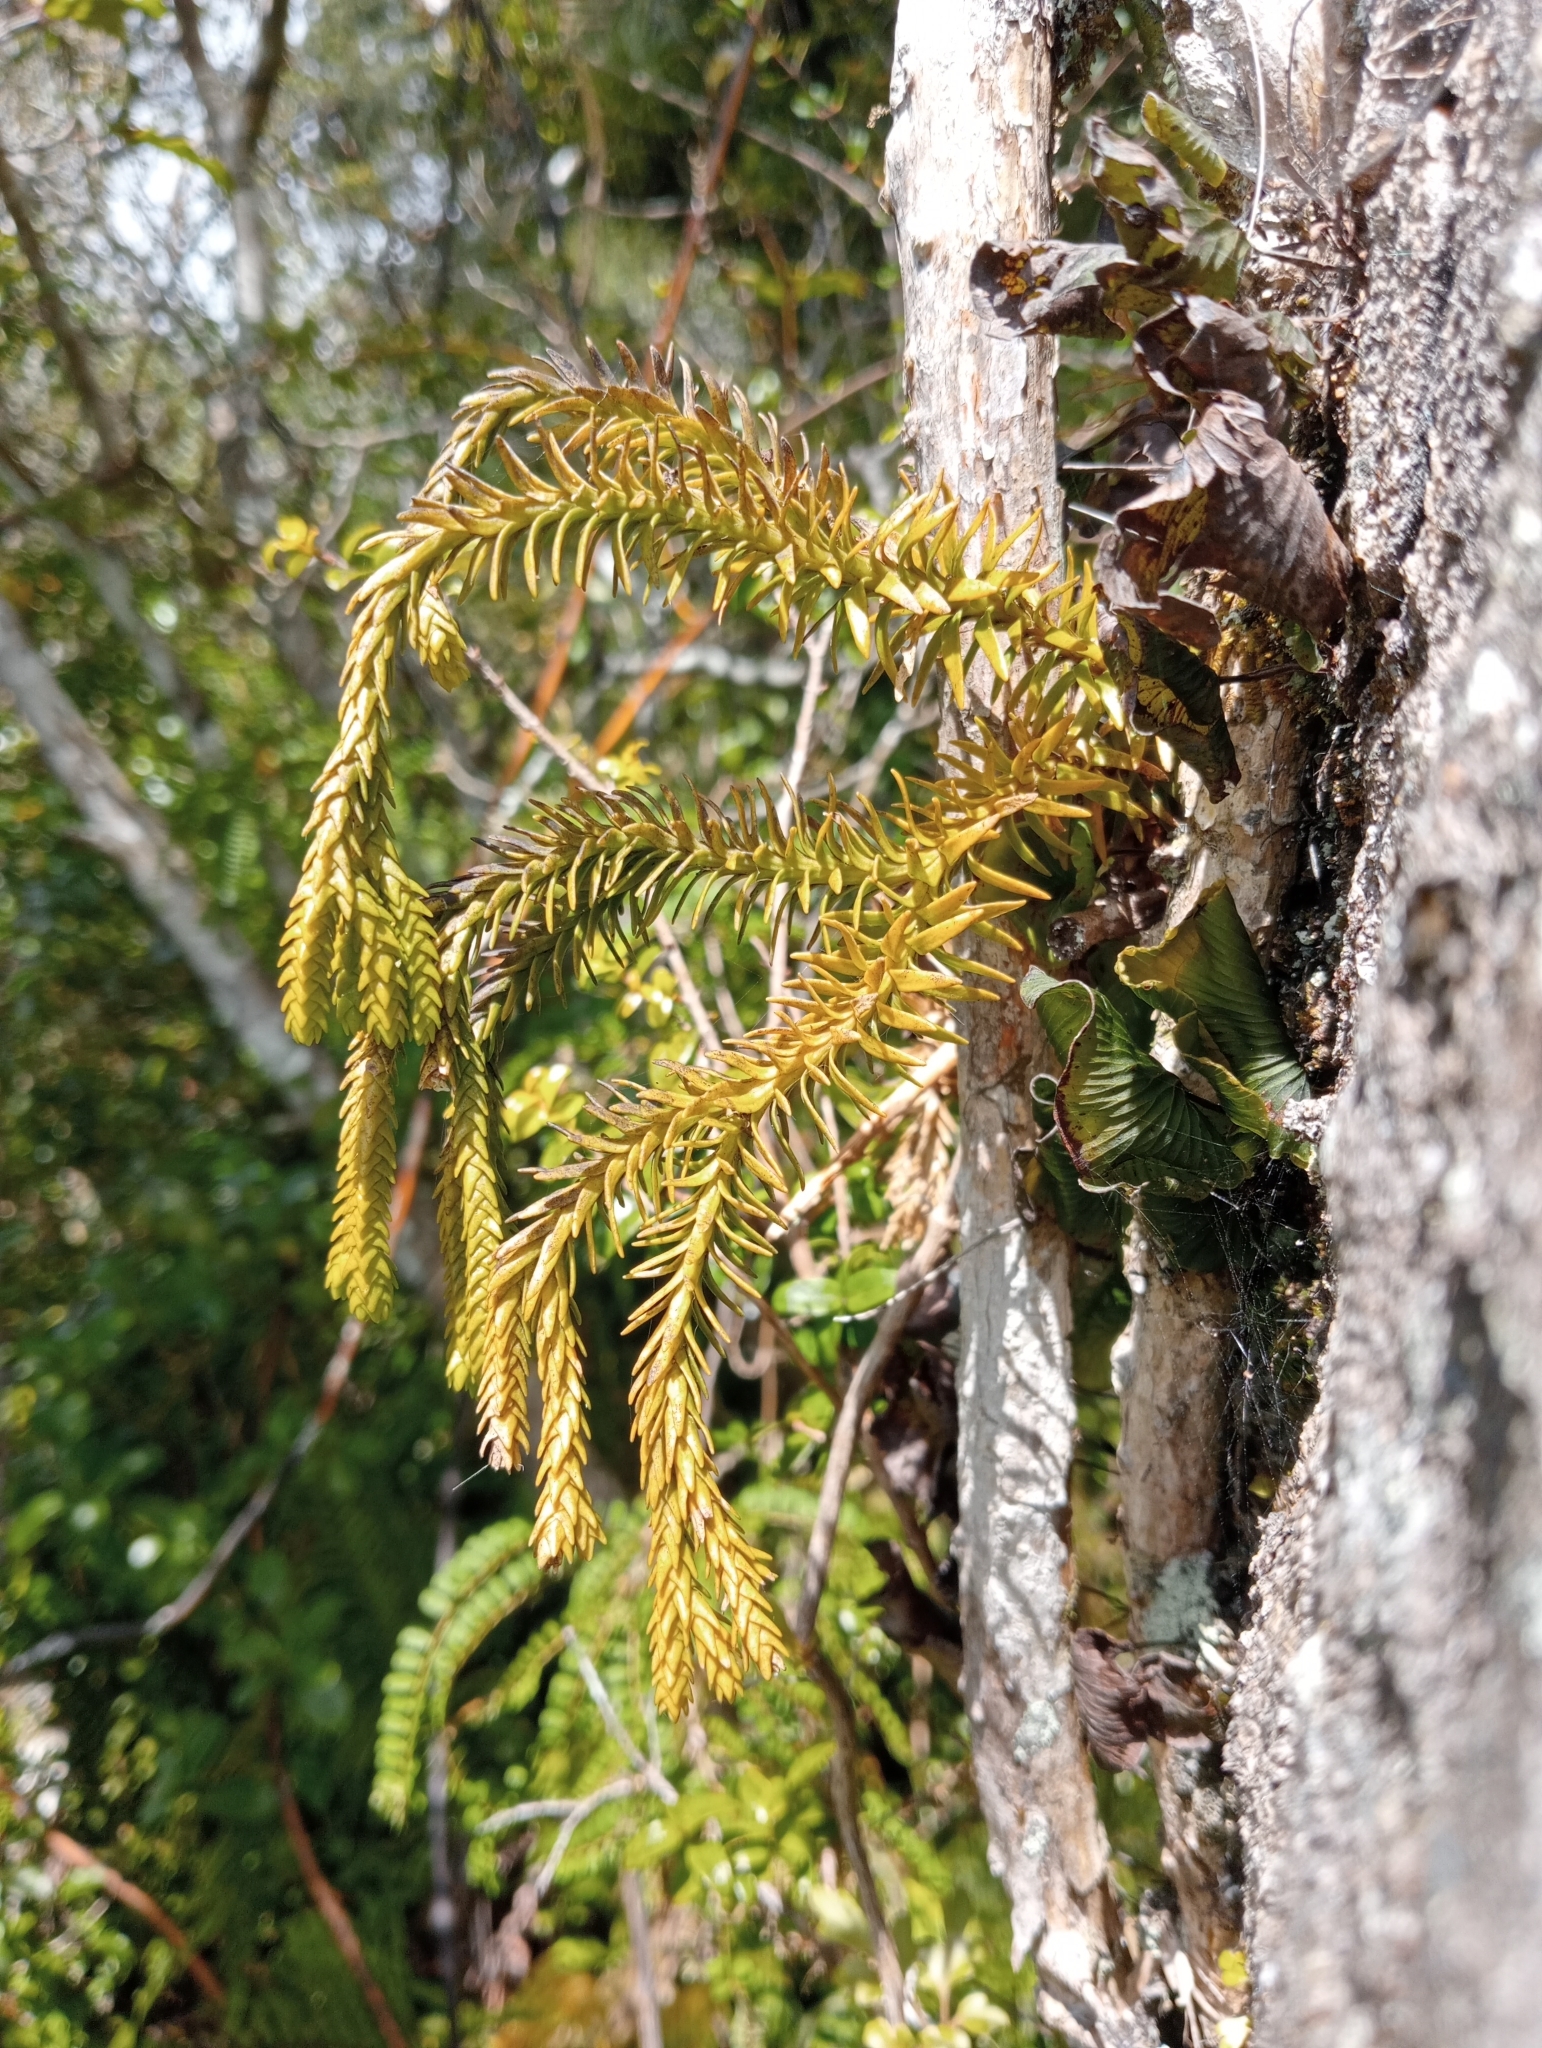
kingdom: Plantae
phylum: Tracheophyta
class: Lycopodiopsida
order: Lycopodiales
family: Lycopodiaceae
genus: Phlegmariurus
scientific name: Phlegmariurus varius
